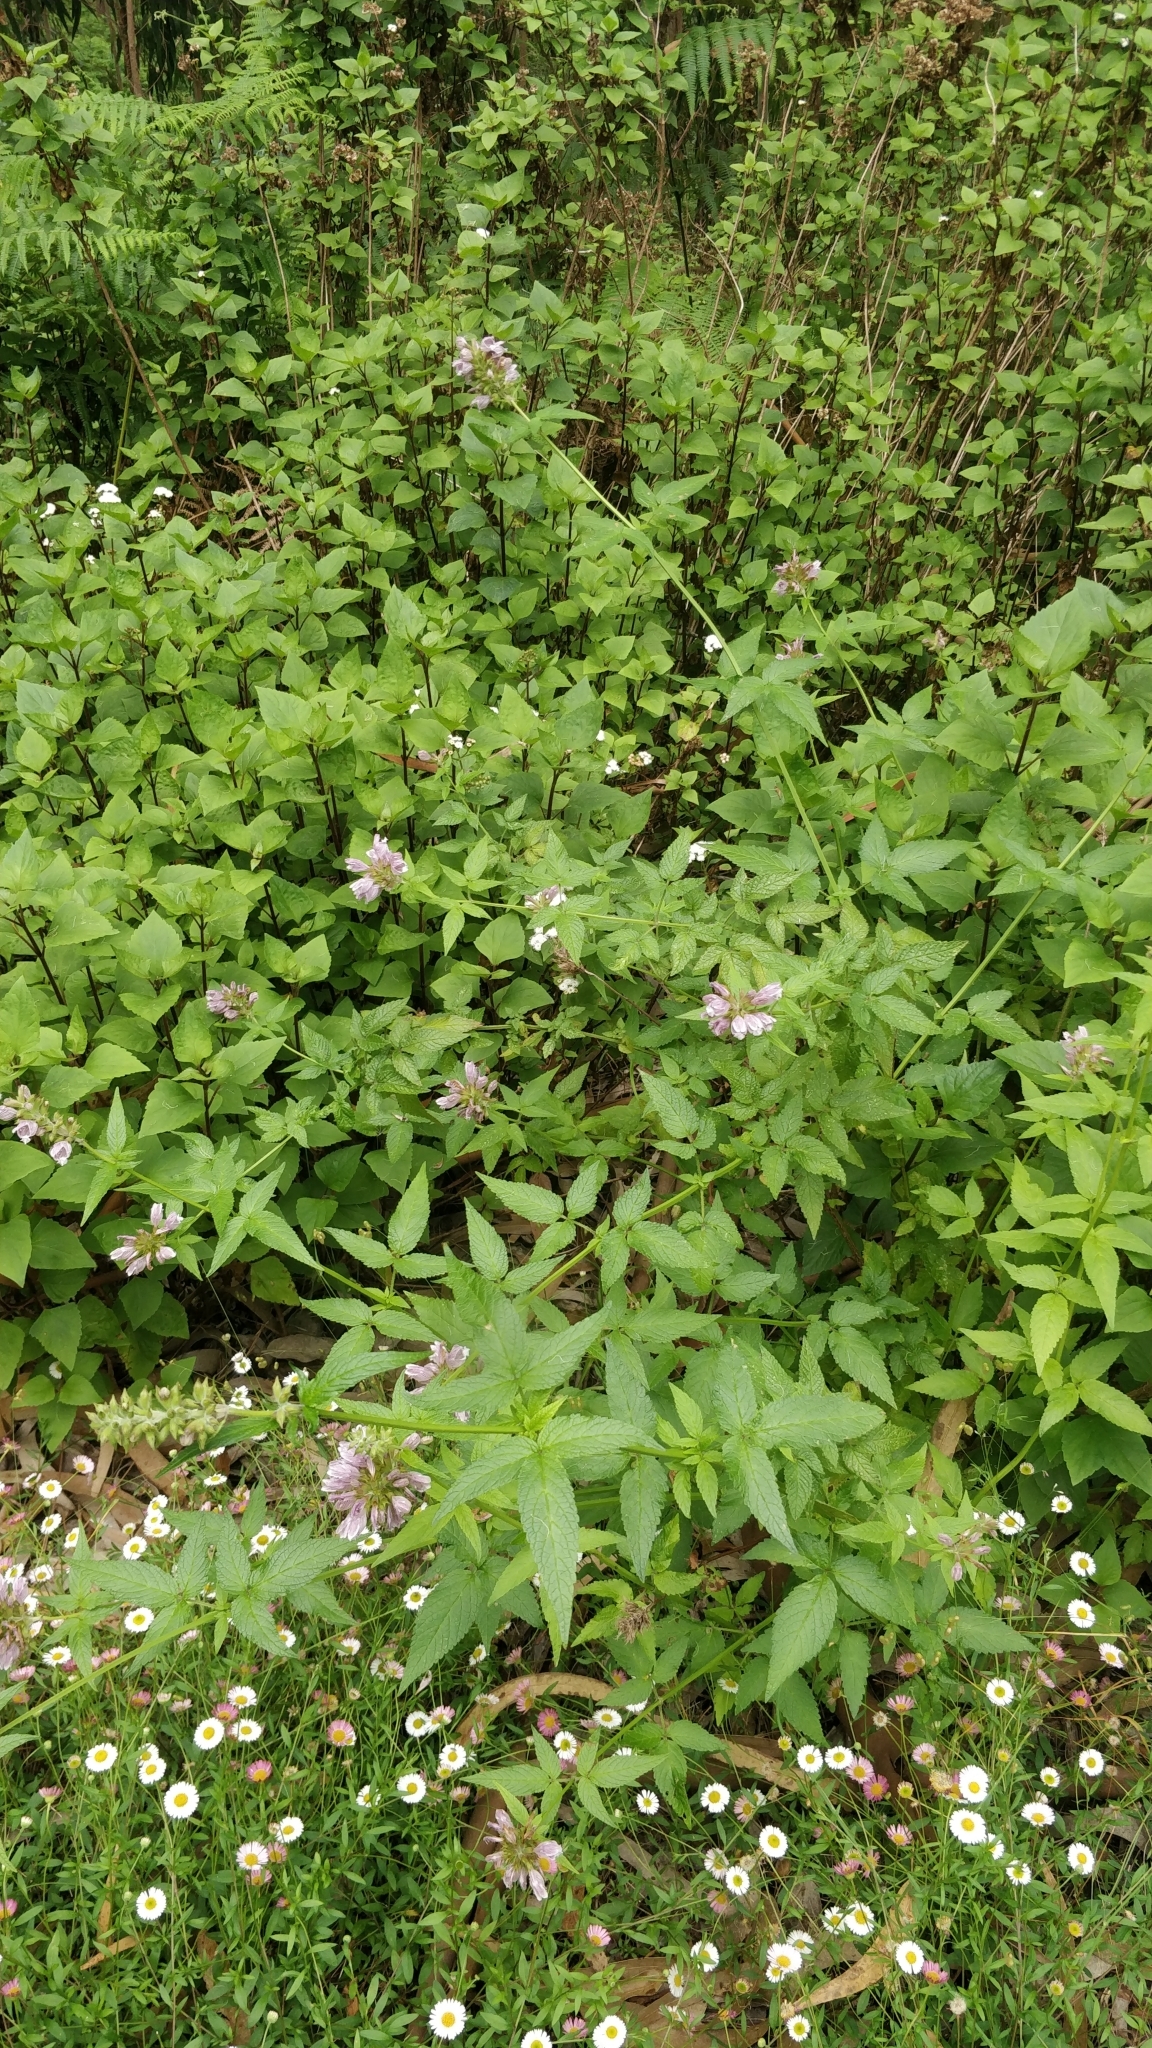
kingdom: Plantae
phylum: Tracheophyta
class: Magnoliopsida
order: Lamiales
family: Lamiaceae
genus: Cedronella
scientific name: Cedronella canariensis
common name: Canary islands balm
